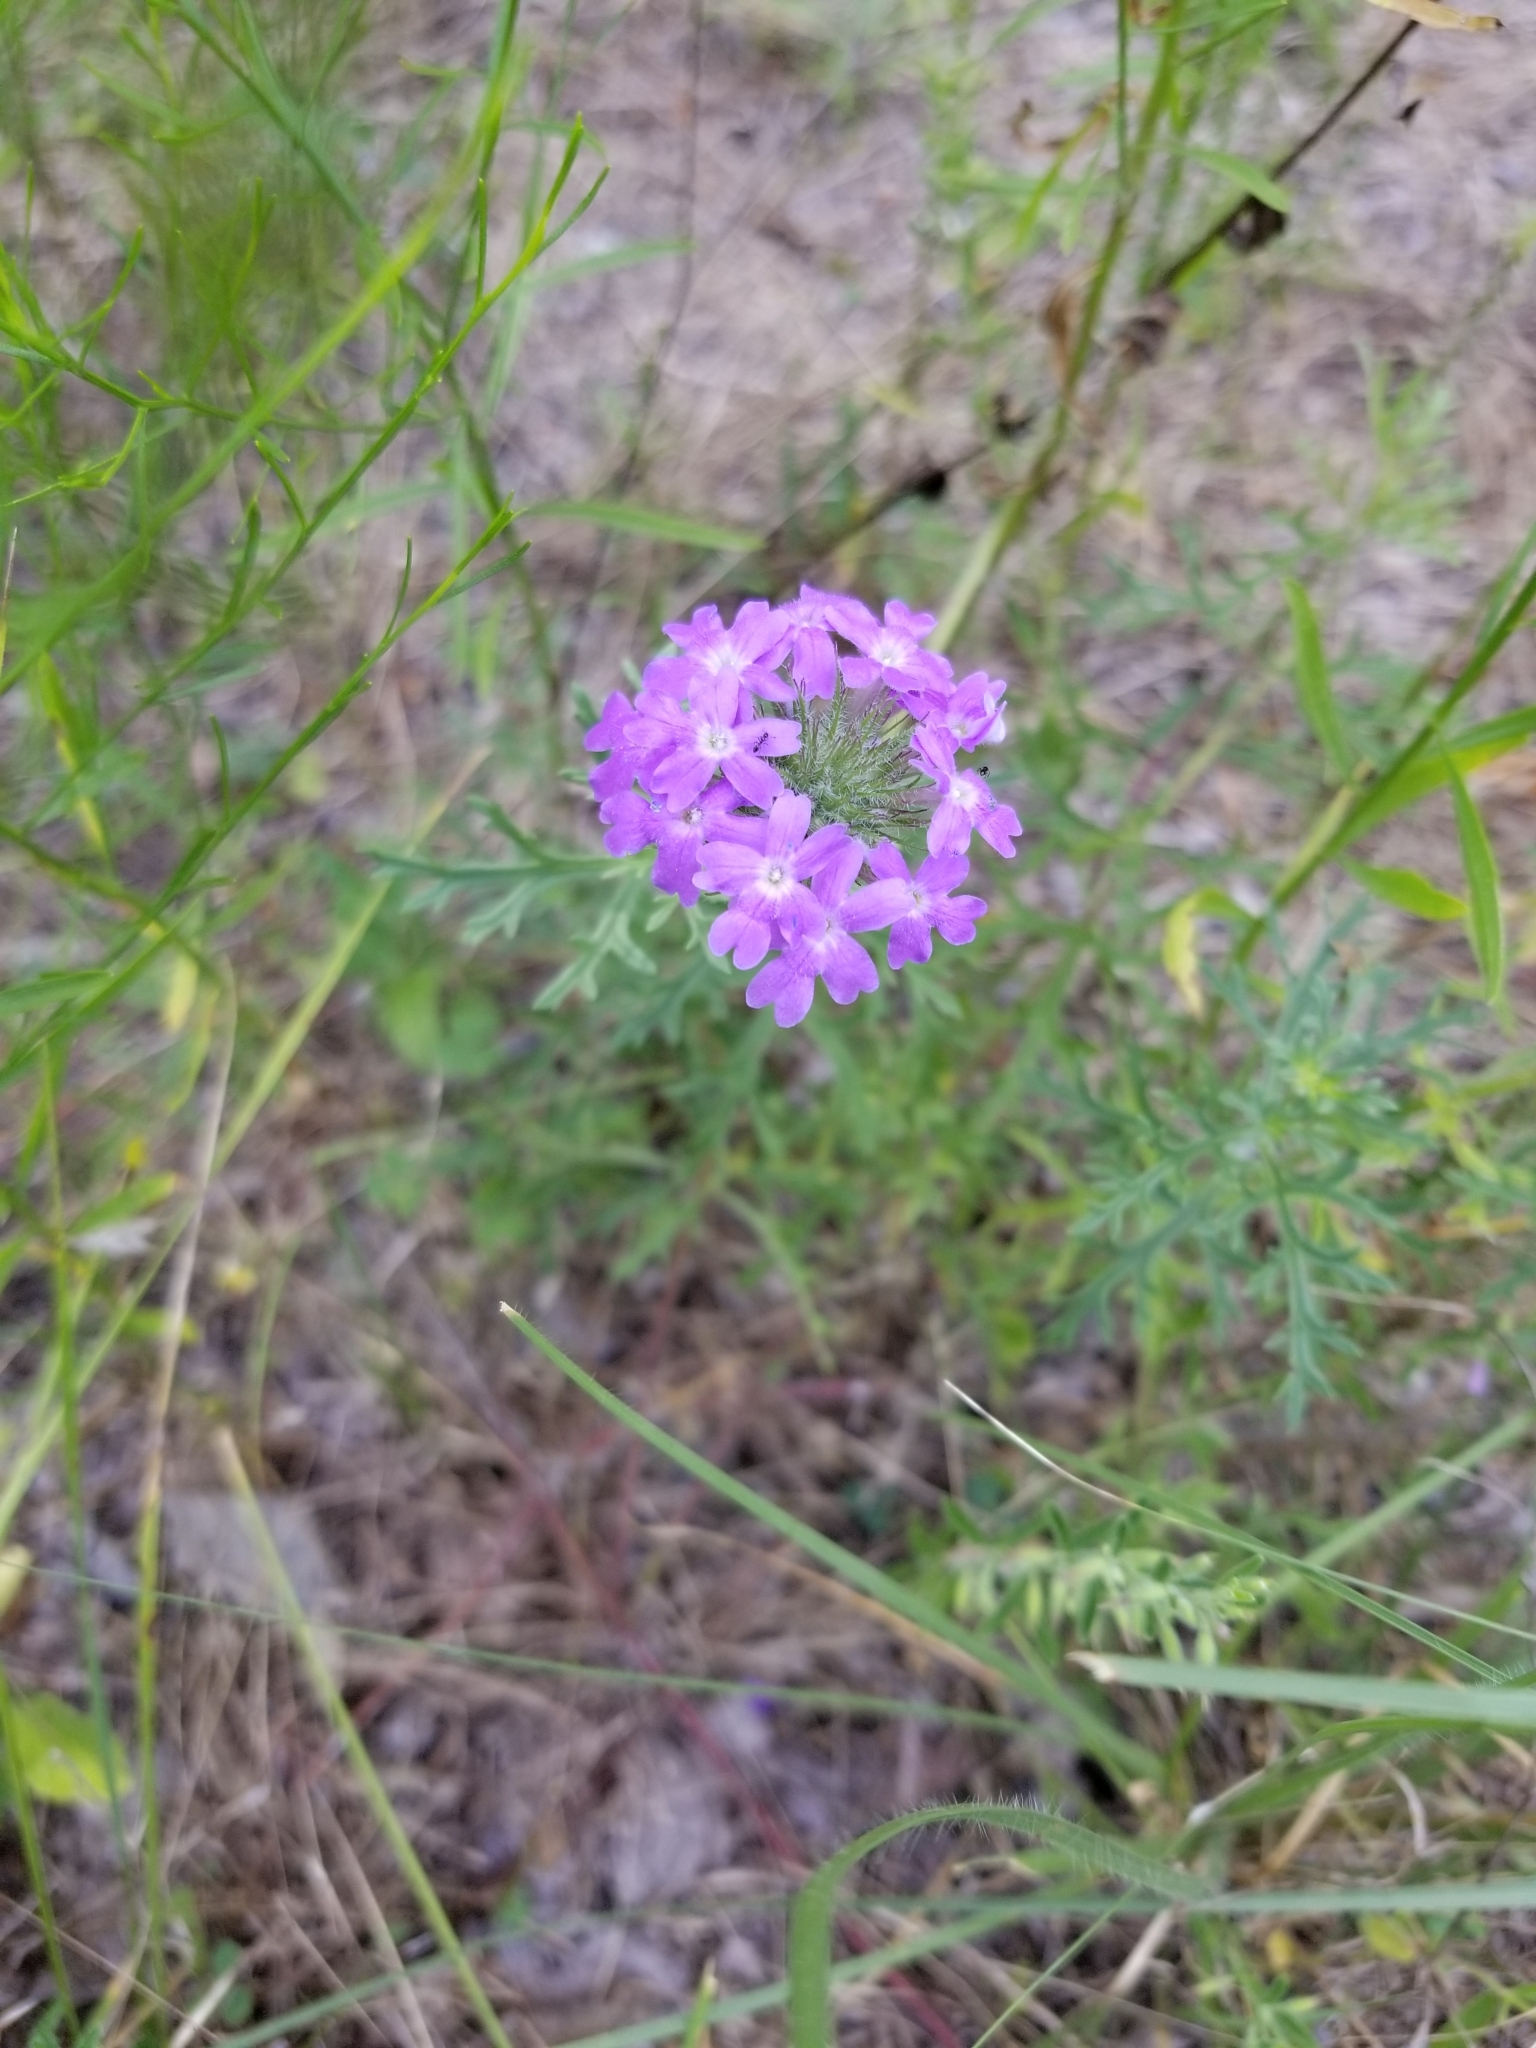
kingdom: Plantae
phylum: Tracheophyta
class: Magnoliopsida
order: Lamiales
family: Verbenaceae
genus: Verbena
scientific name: Verbena bipinnatifida
